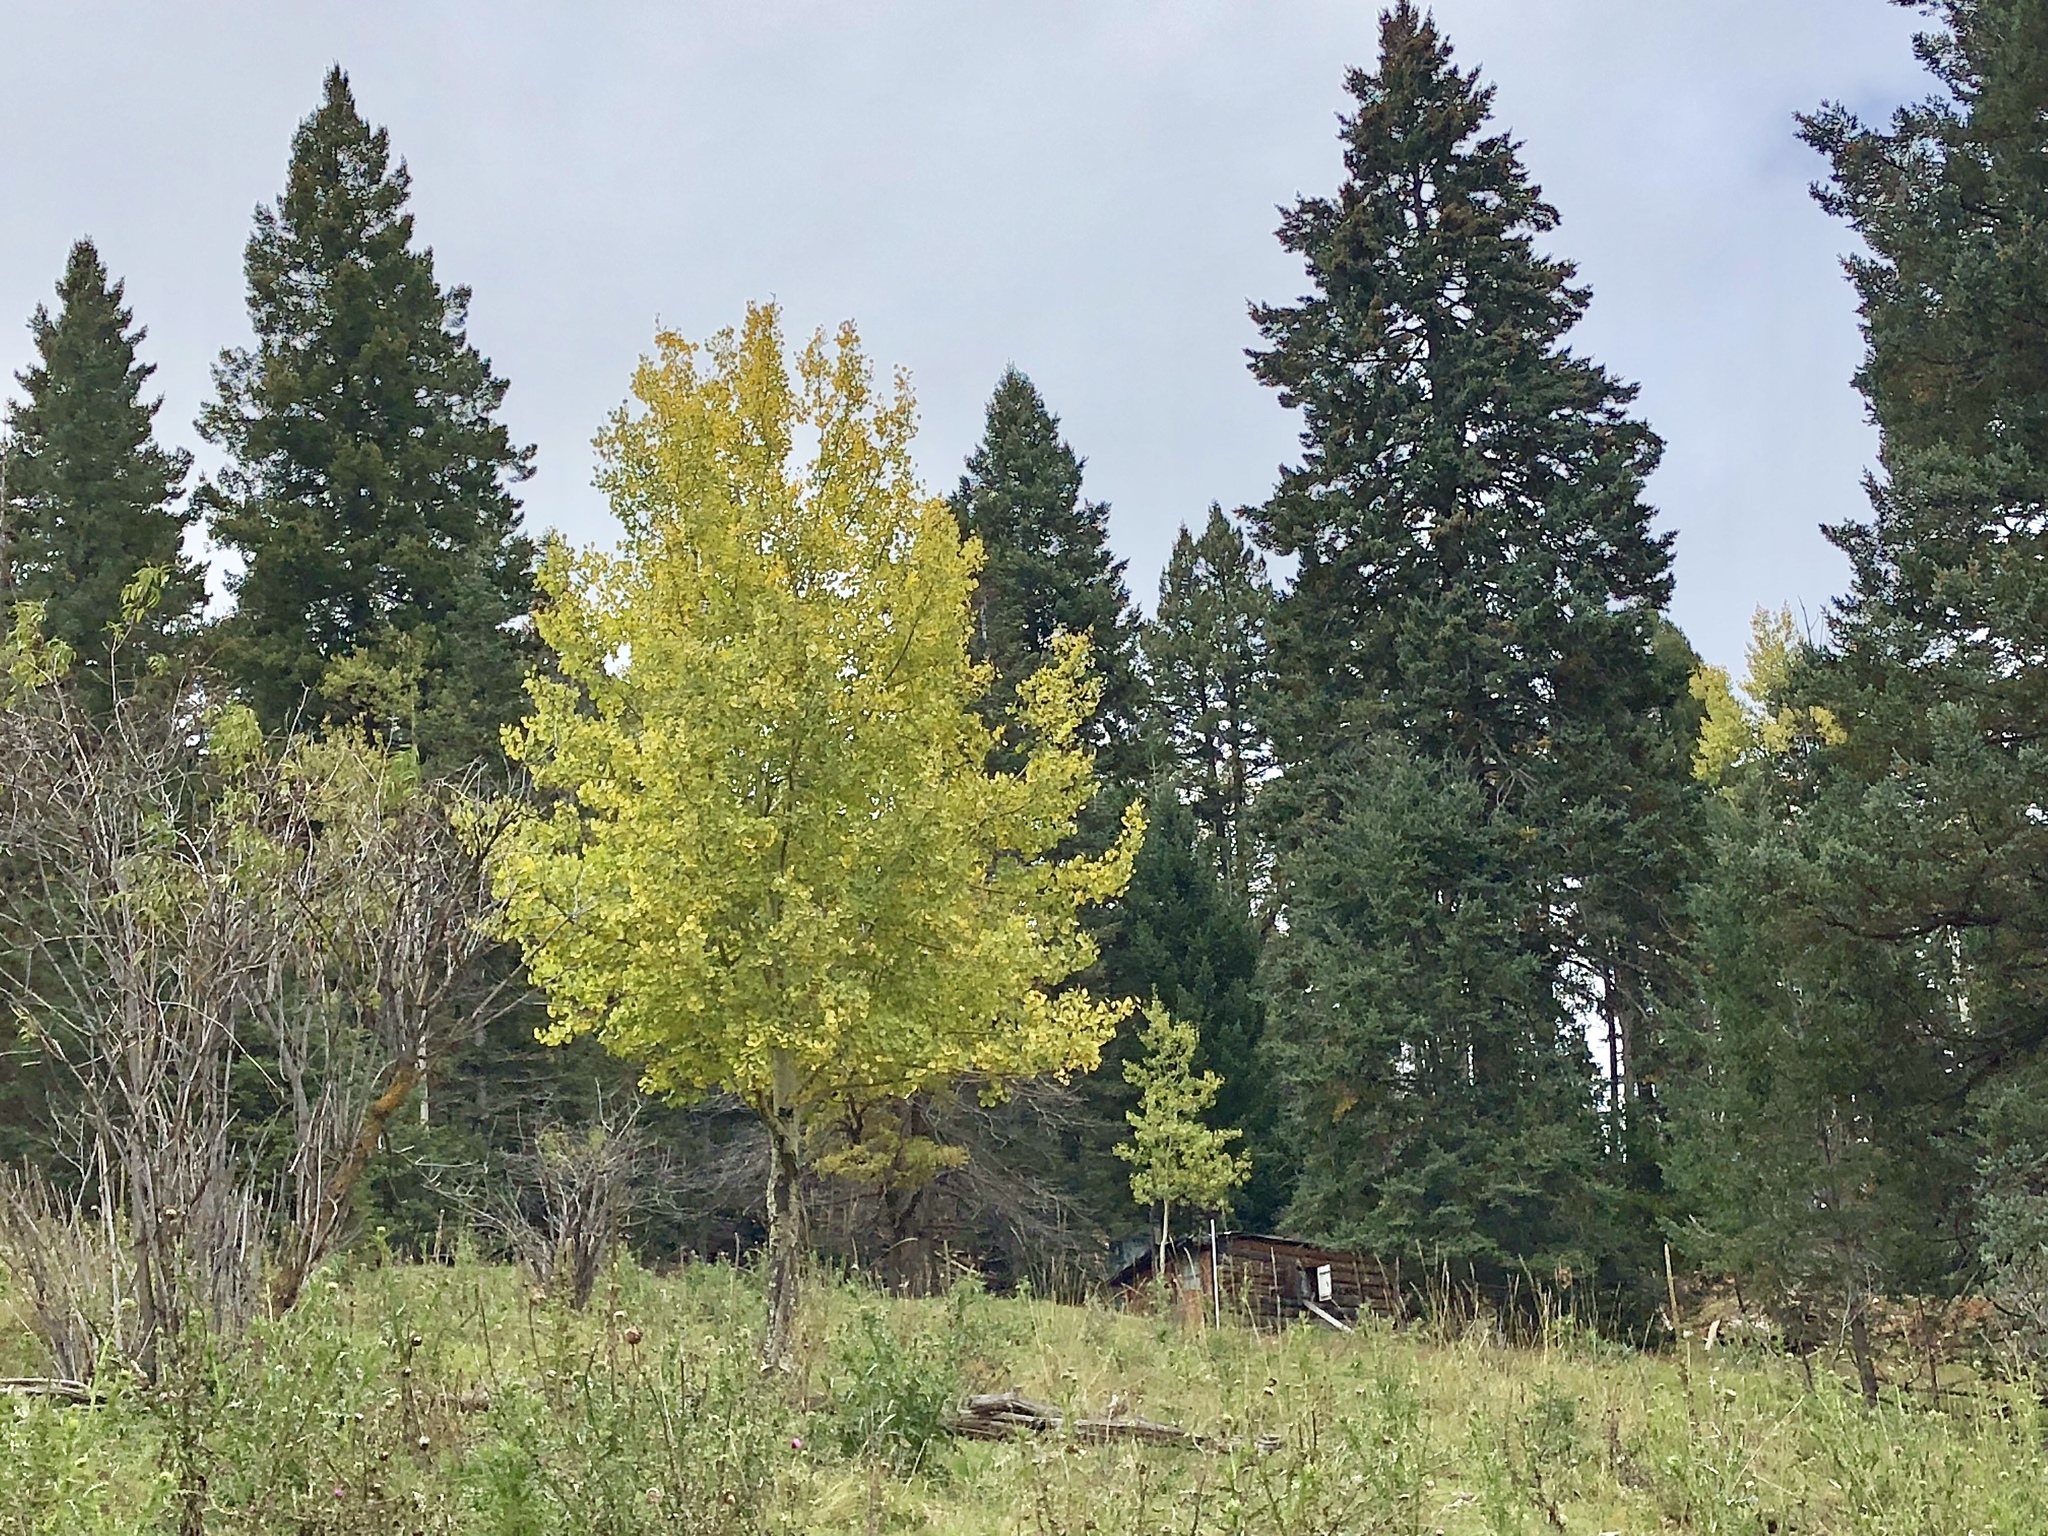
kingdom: Plantae
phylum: Tracheophyta
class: Magnoliopsida
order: Malpighiales
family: Salicaceae
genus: Populus
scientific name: Populus tremuloides
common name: Quaking aspen
